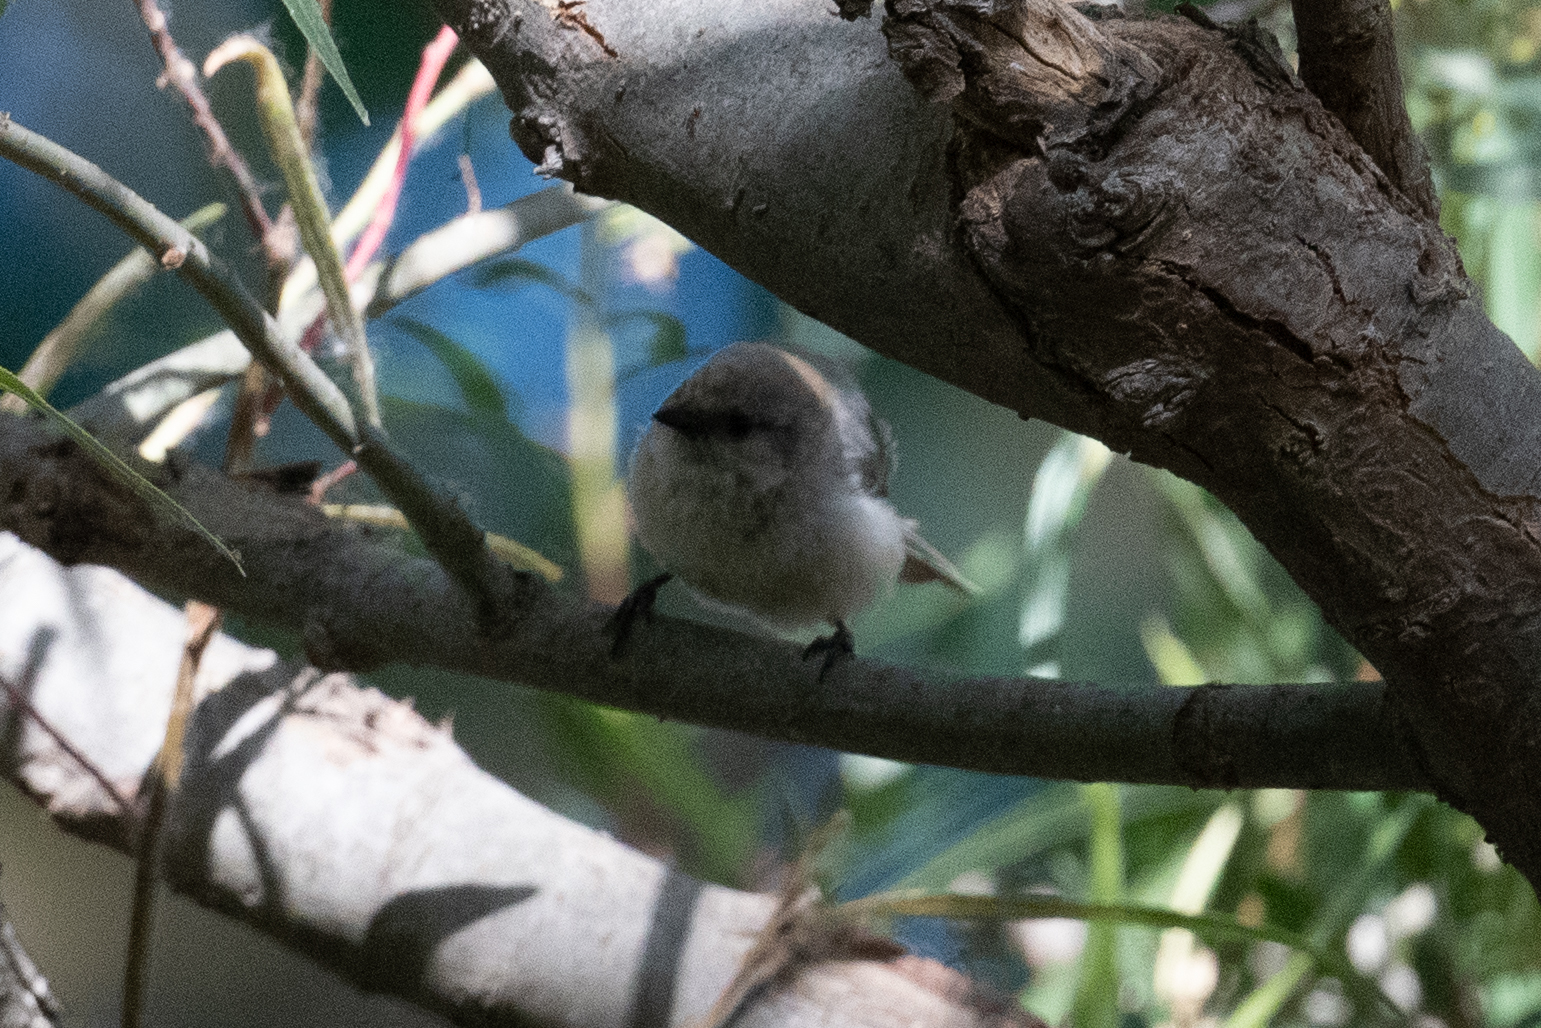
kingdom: Animalia
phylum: Chordata
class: Aves
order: Passeriformes
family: Aegithalidae
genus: Psaltriparus
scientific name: Psaltriparus minimus
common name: American bushtit
